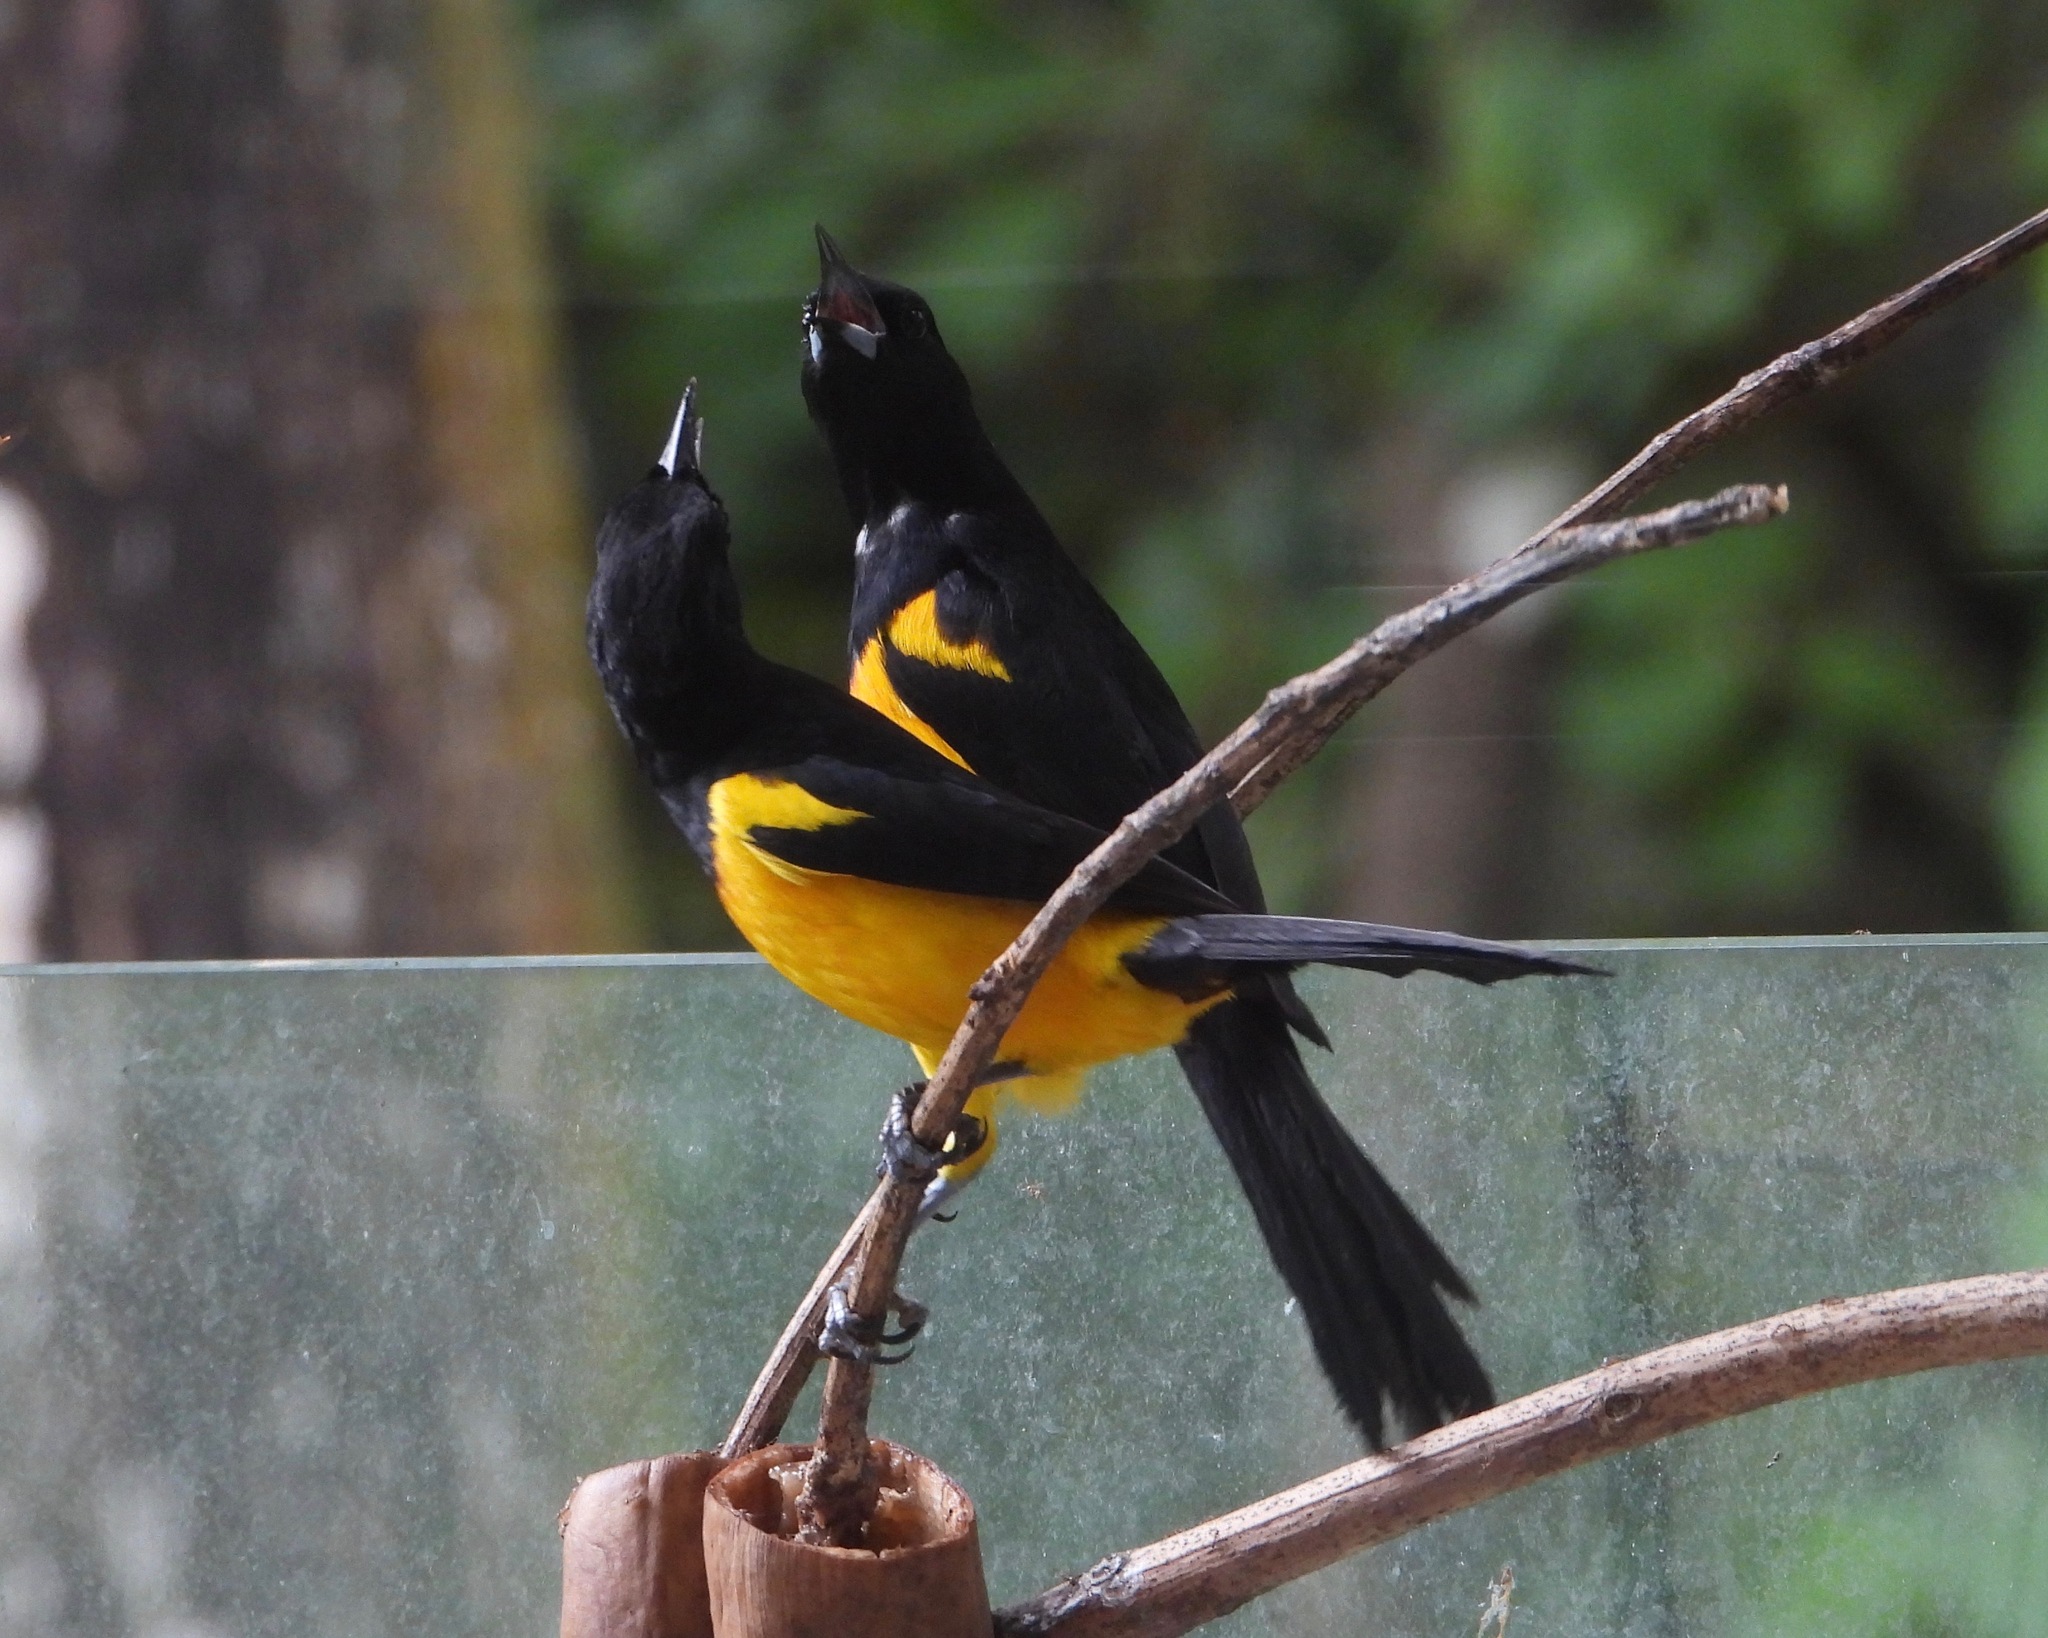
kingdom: Animalia
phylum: Chordata
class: Aves
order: Passeriformes
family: Icteridae
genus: Icterus
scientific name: Icterus wagleri
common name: Black-vented oriole
